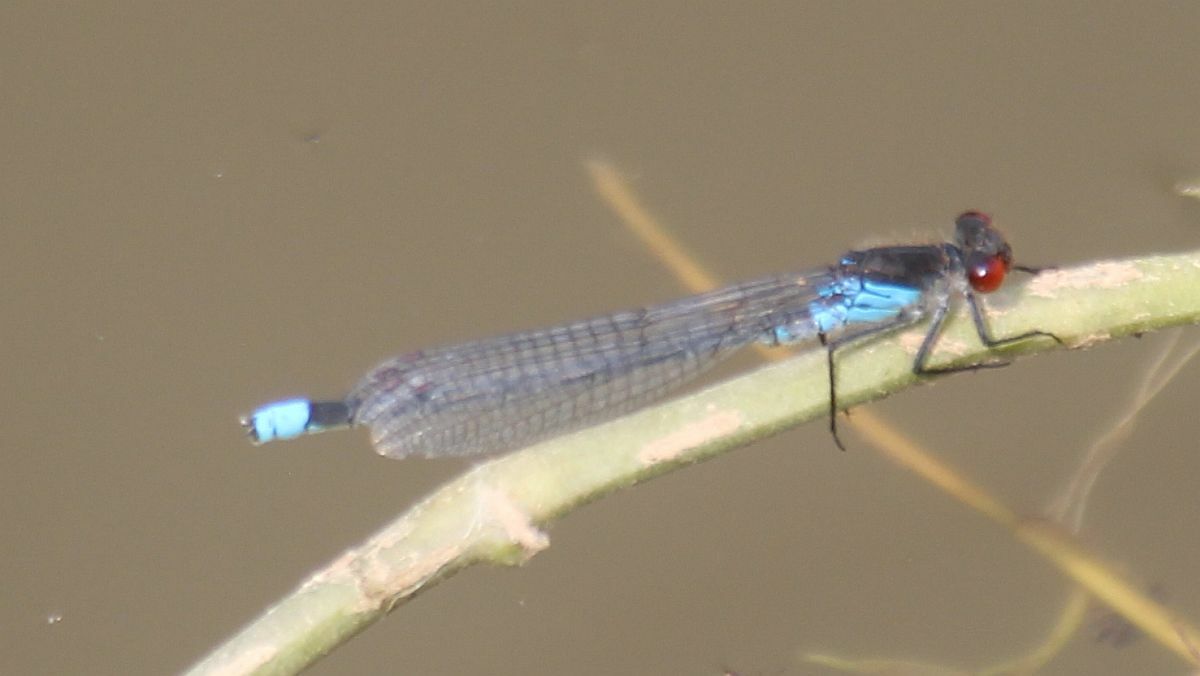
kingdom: Animalia
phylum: Arthropoda
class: Insecta
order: Odonata
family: Coenagrionidae
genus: Erythromma
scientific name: Erythromma najas
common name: Red-eyed damselfly
